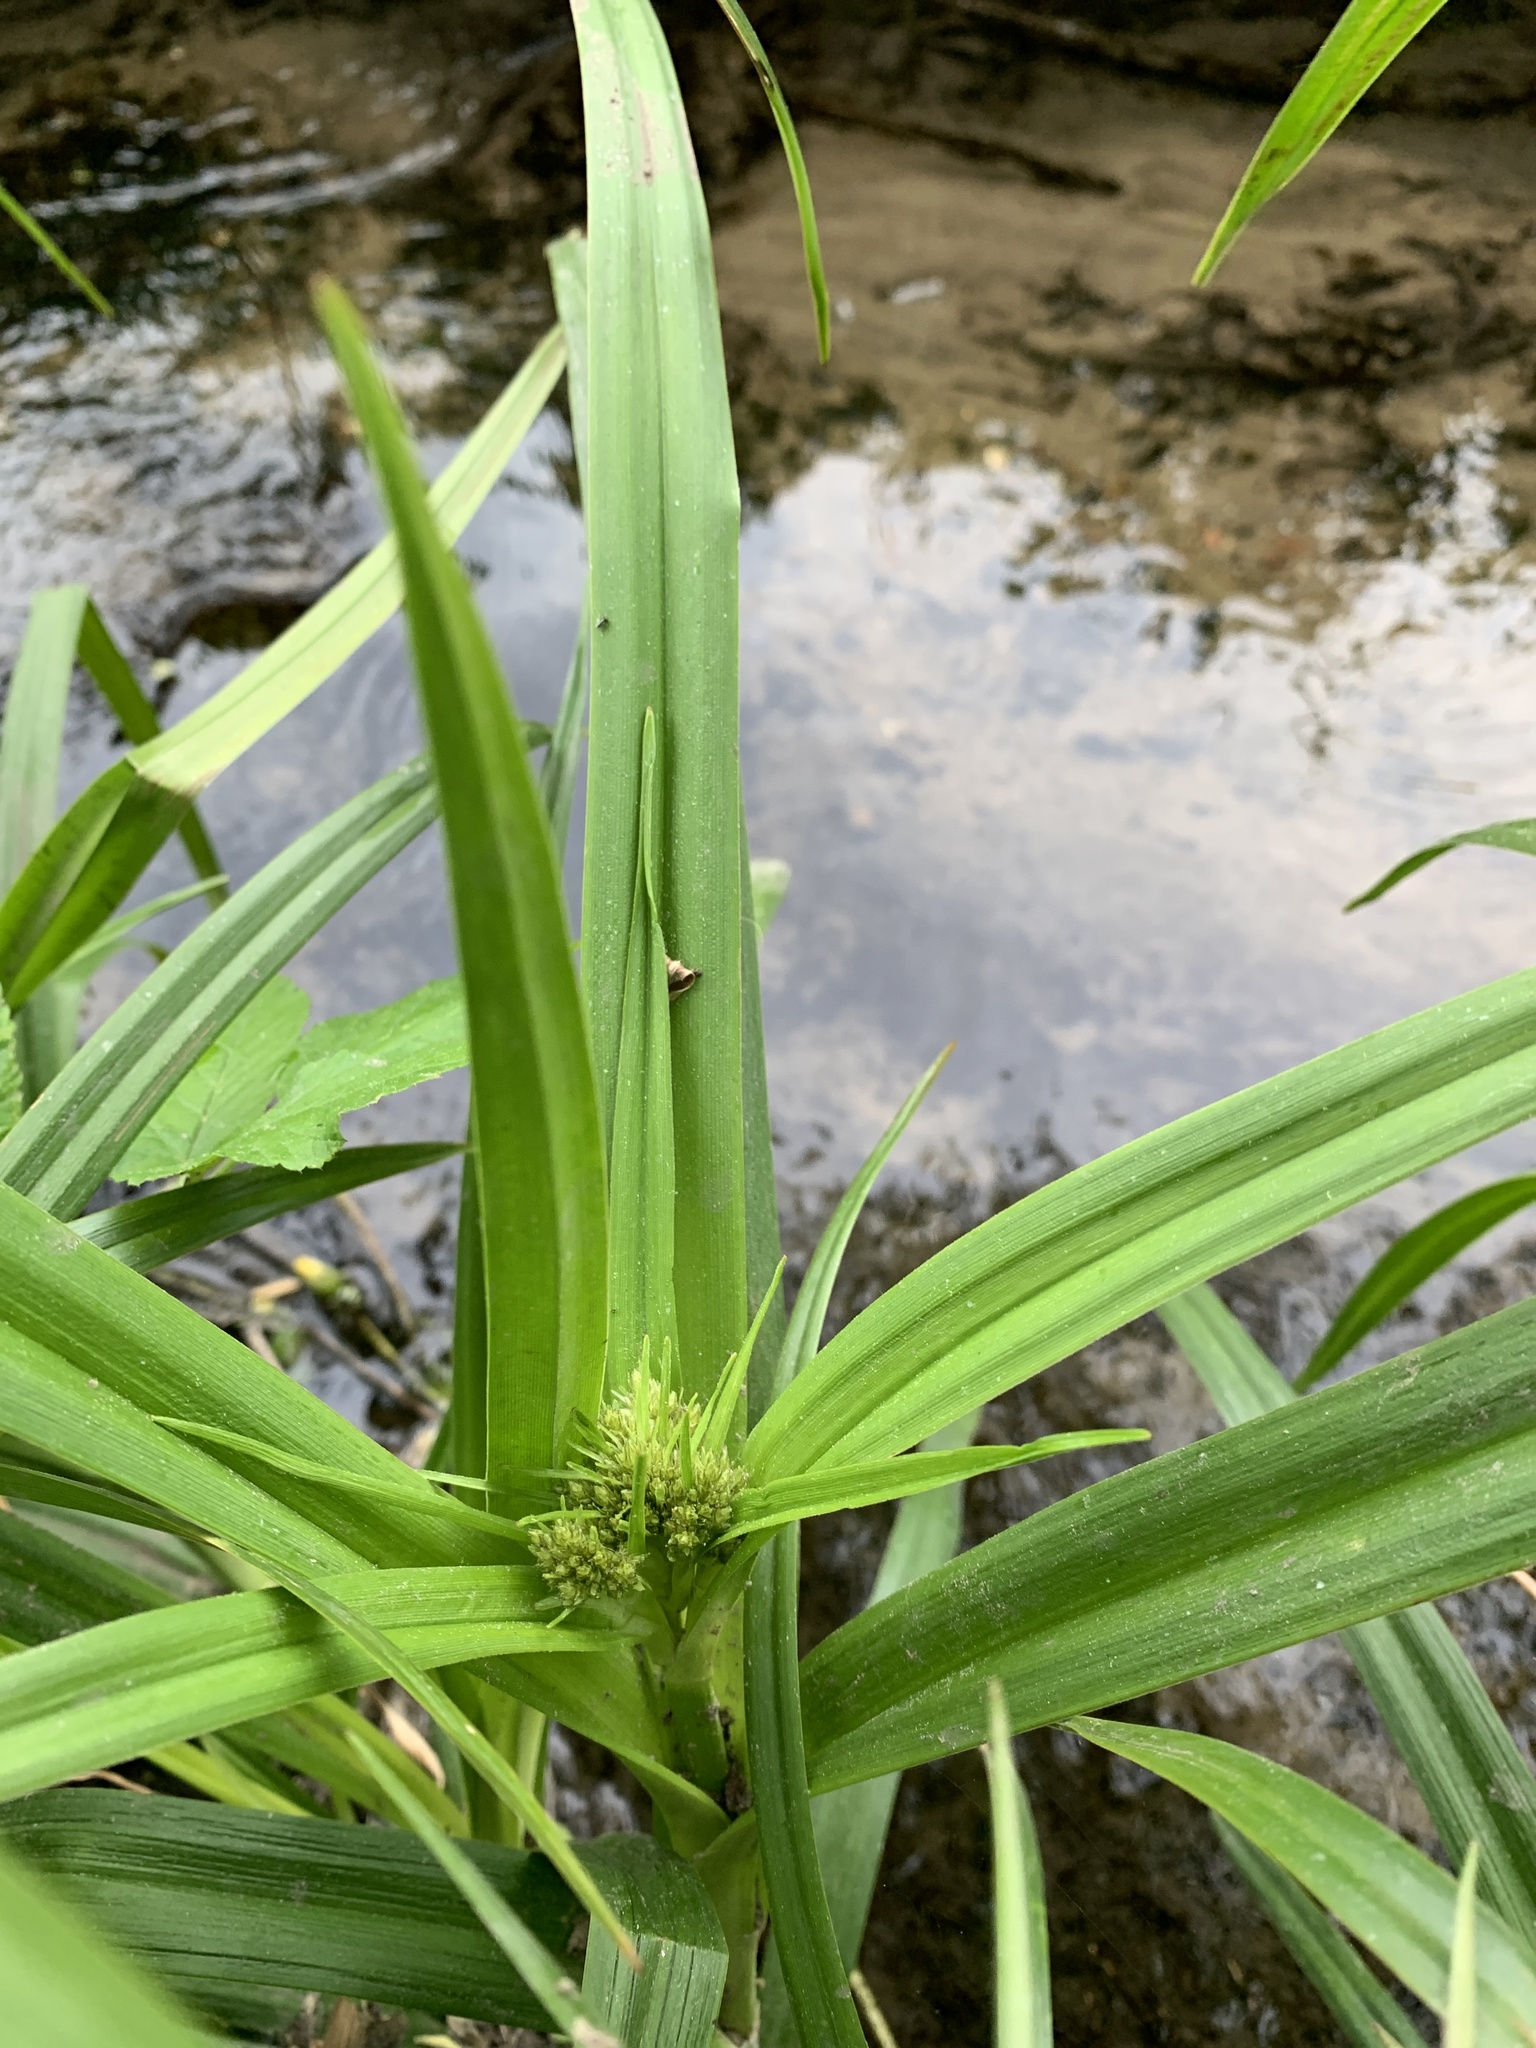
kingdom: Plantae
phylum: Tracheophyta
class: Liliopsida
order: Poales
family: Cyperaceae
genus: Scirpus
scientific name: Scirpus sylvaticus
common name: Wood club-rush
